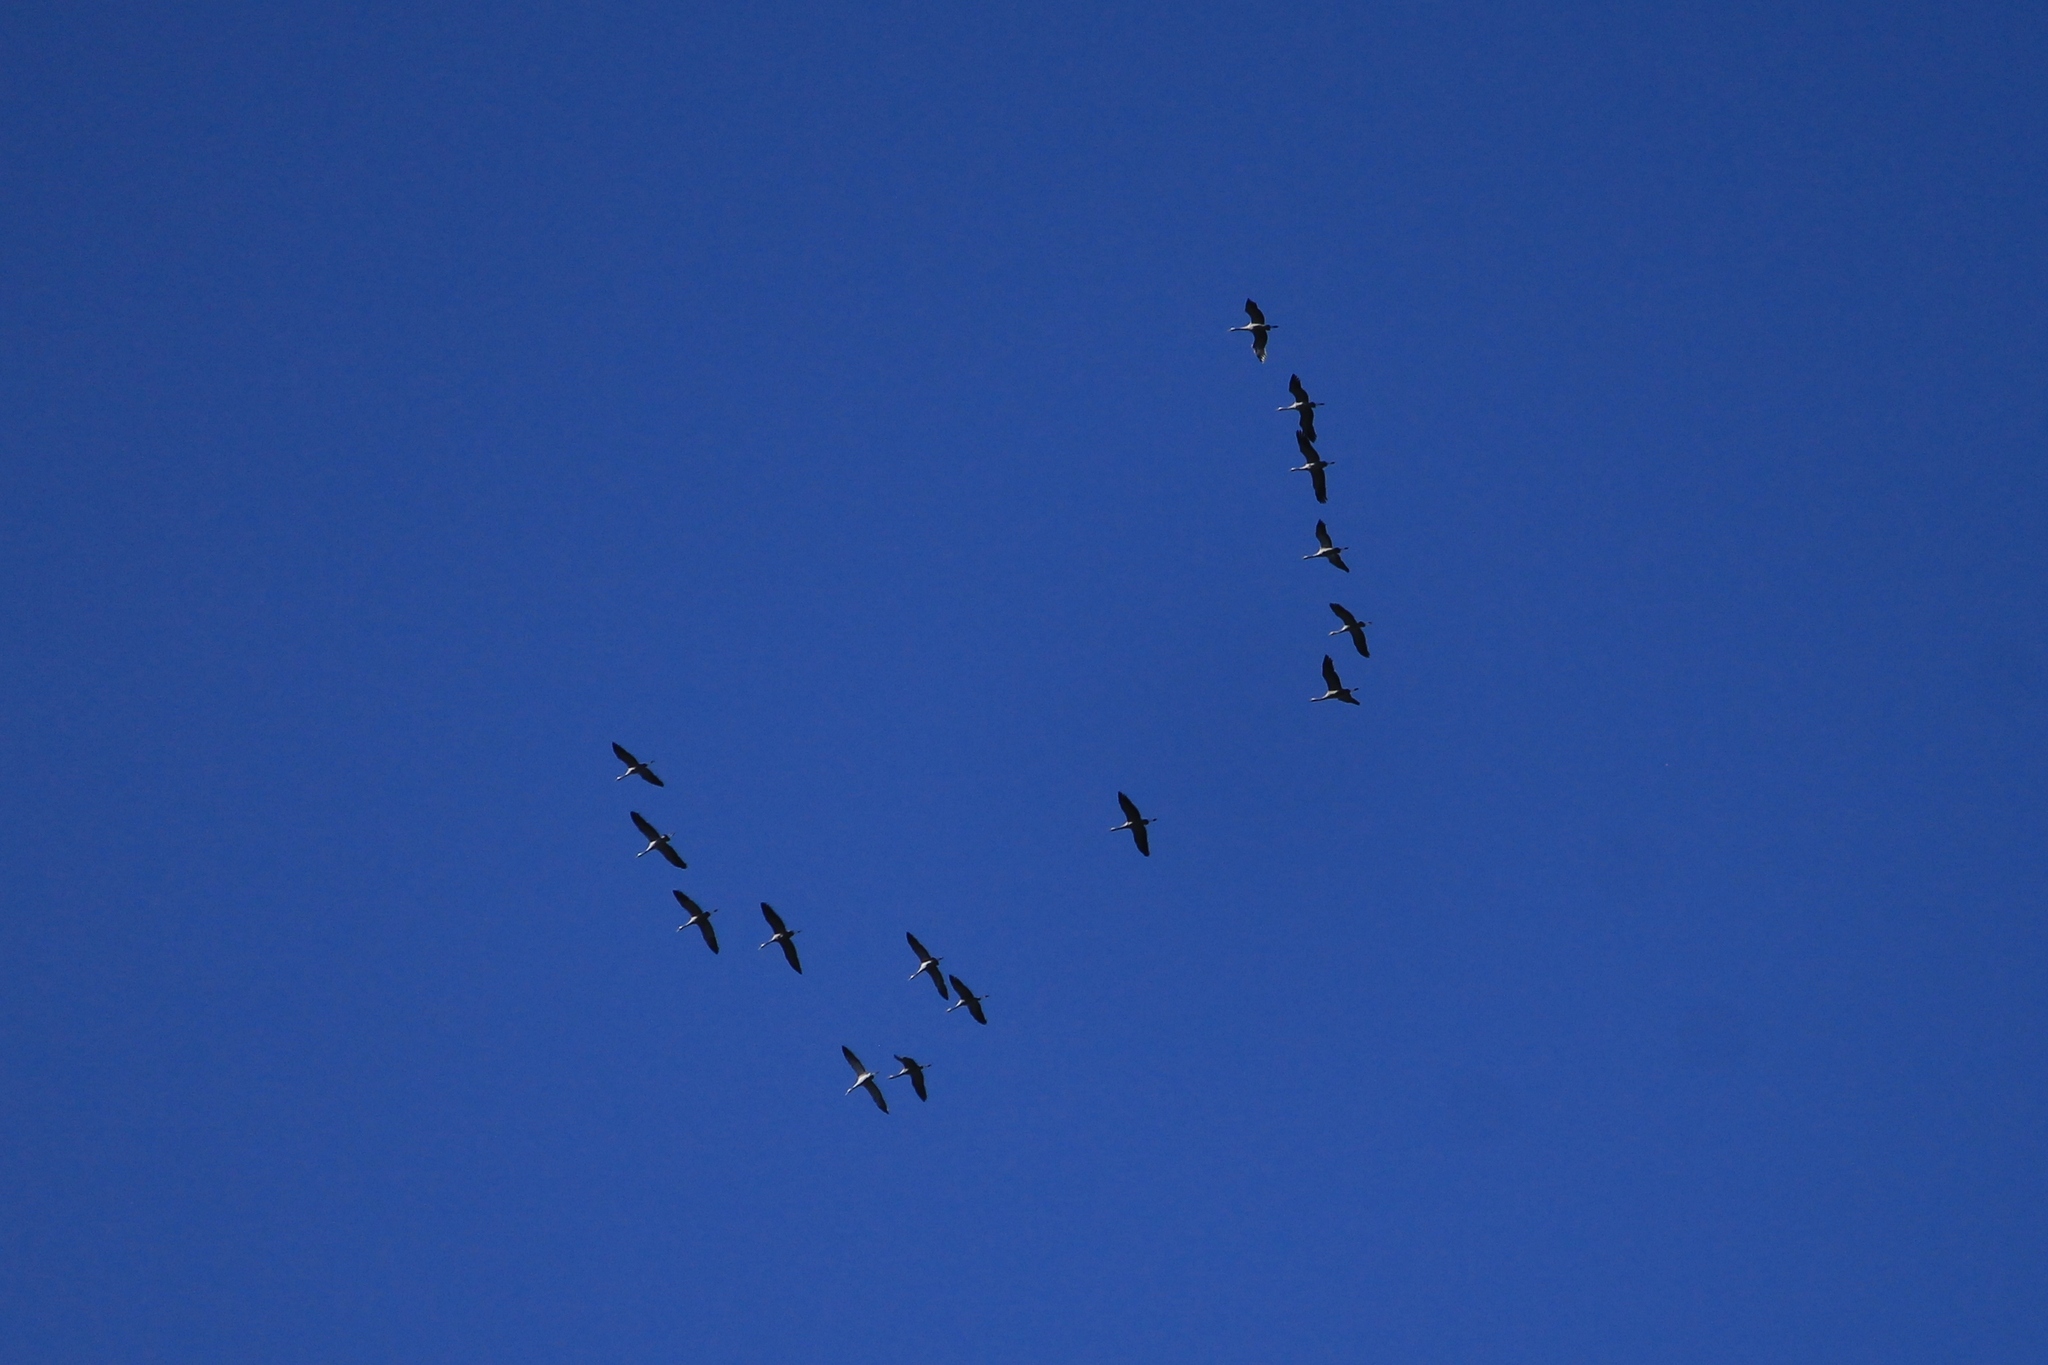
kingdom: Animalia
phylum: Chordata
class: Aves
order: Gruiformes
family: Gruidae
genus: Grus
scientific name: Grus grus
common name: Common crane
